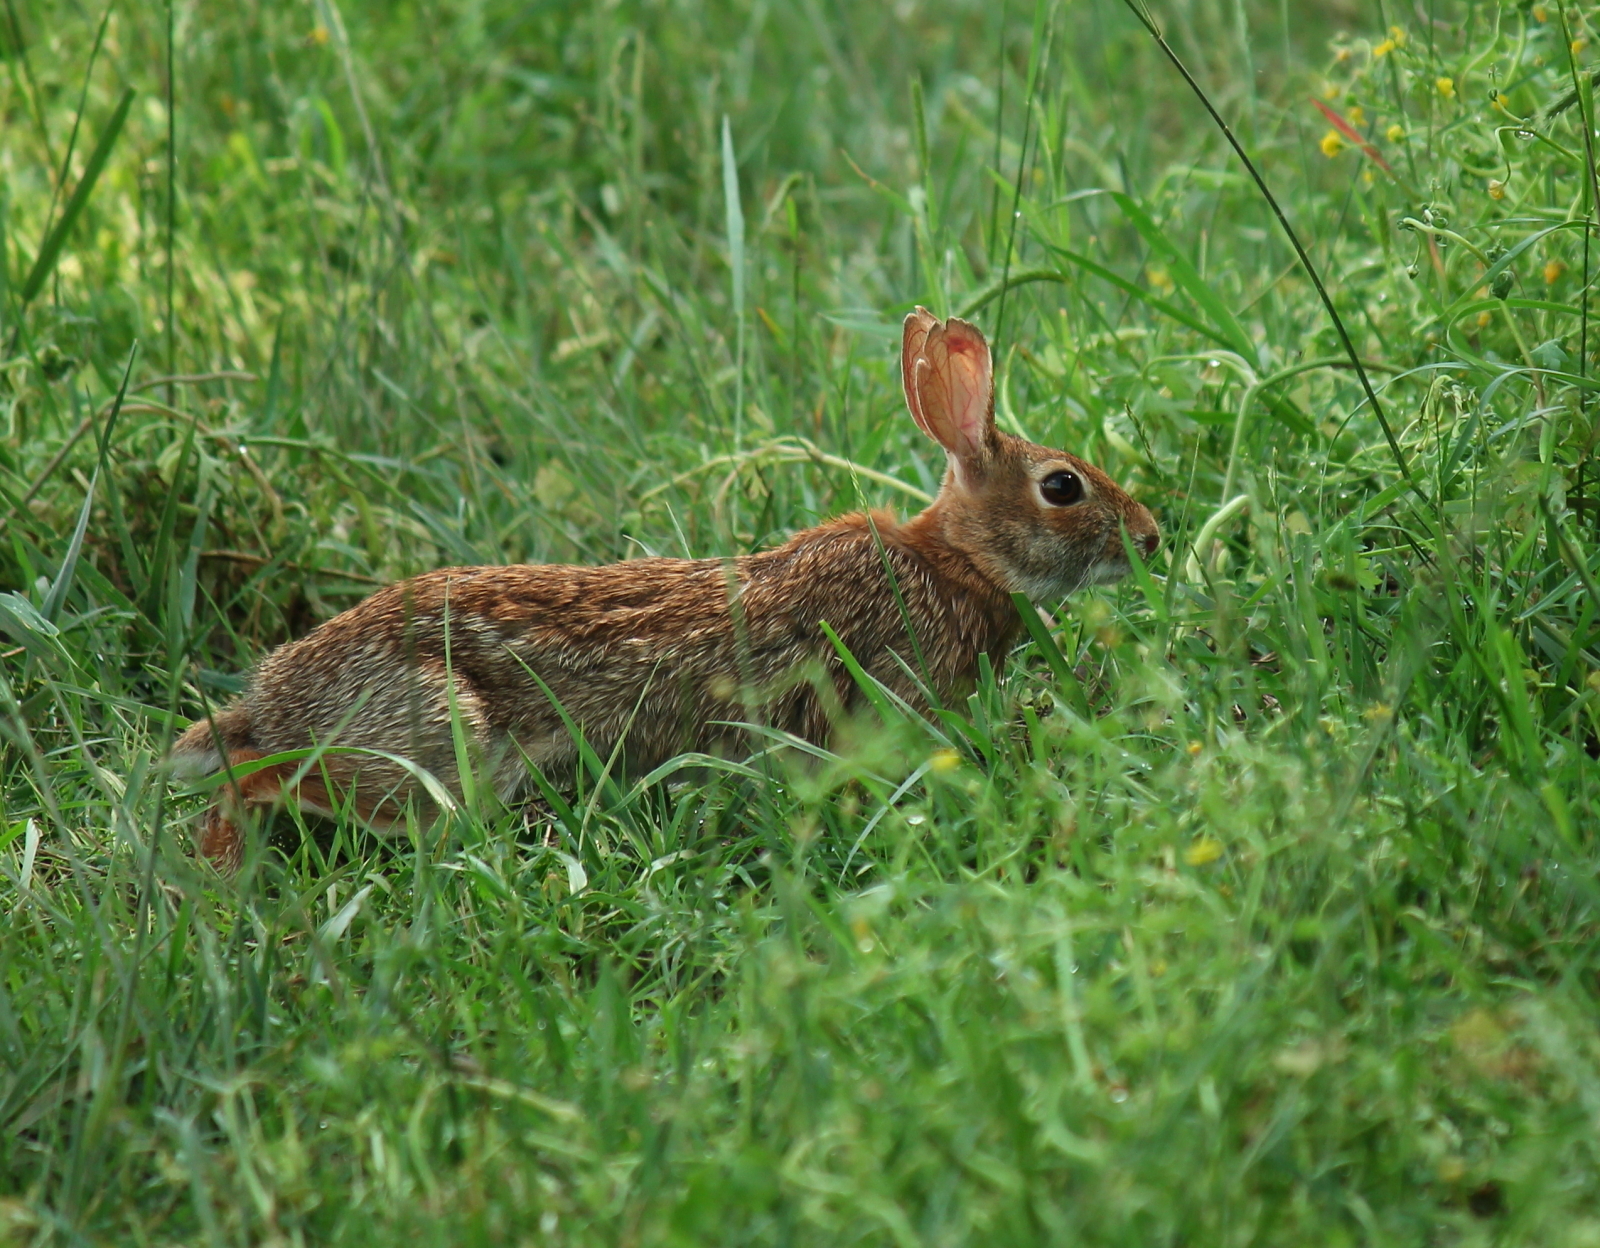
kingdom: Animalia
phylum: Chordata
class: Mammalia
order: Lagomorpha
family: Leporidae
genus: Sylvilagus
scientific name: Sylvilagus floridanus
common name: Eastern cottontail
